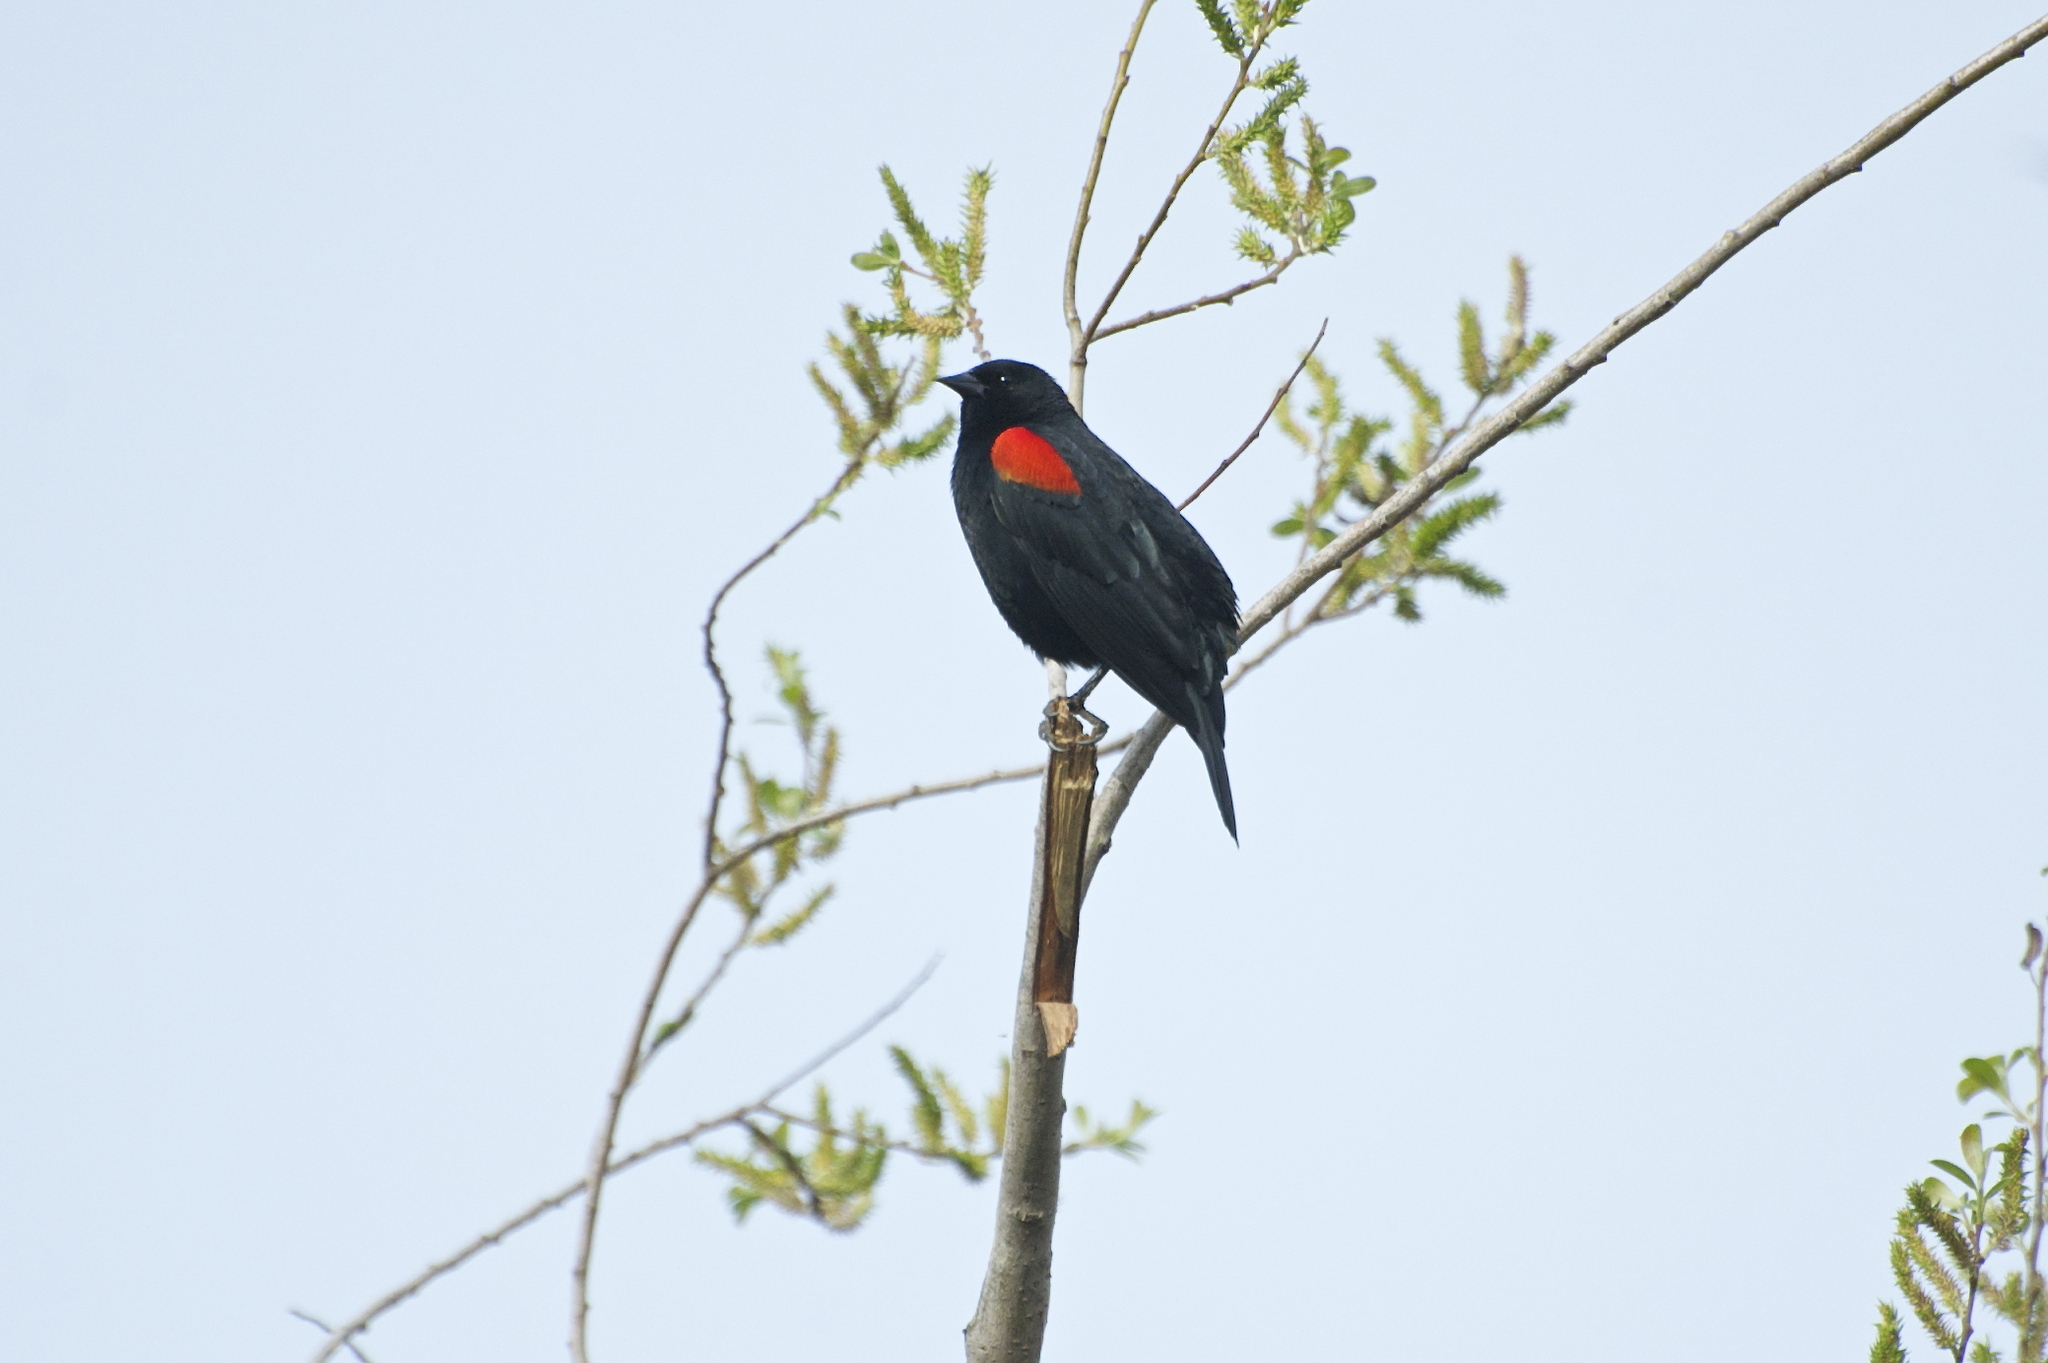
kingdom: Animalia
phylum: Chordata
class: Aves
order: Passeriformes
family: Icteridae
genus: Agelaius
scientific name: Agelaius phoeniceus
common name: Red-winged blackbird
